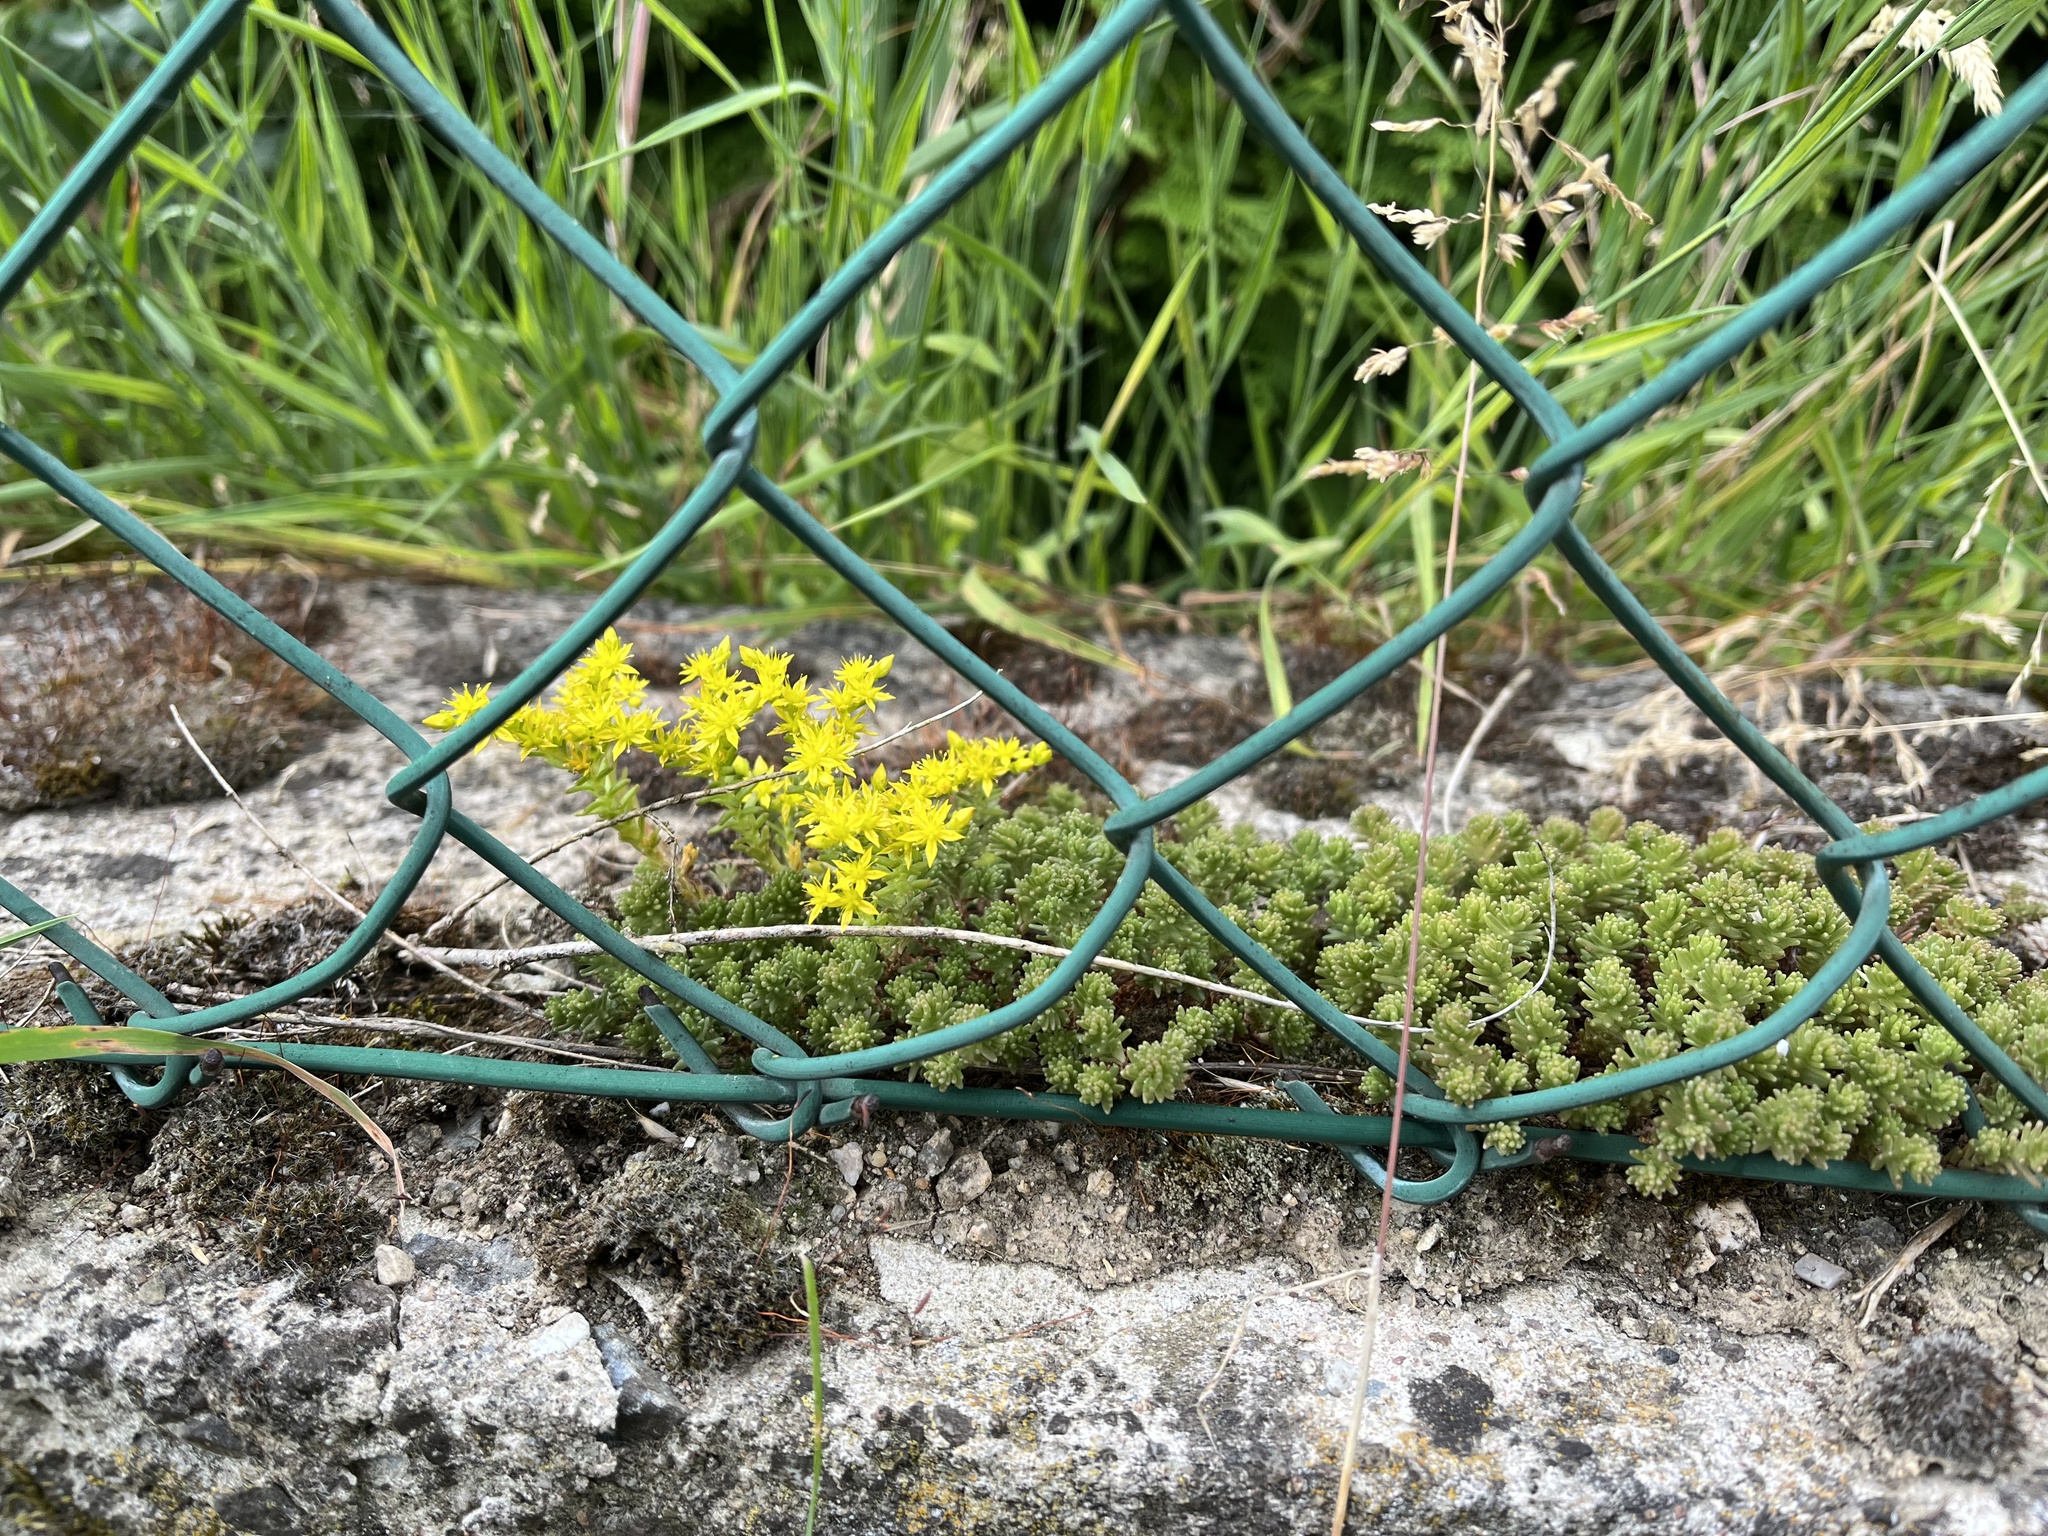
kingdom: Plantae
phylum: Tracheophyta
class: Magnoliopsida
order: Saxifragales
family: Crassulaceae
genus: Sedum
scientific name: Sedum sexangulare
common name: Tasteless stonecrop
